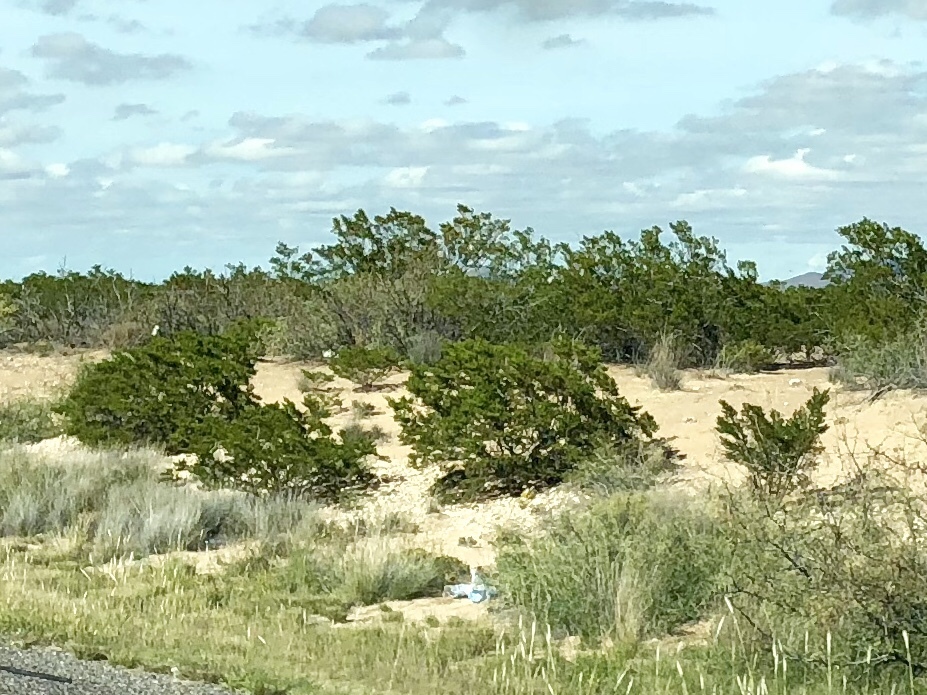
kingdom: Plantae
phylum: Tracheophyta
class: Magnoliopsida
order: Zygophyllales
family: Zygophyllaceae
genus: Larrea
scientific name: Larrea tridentata
